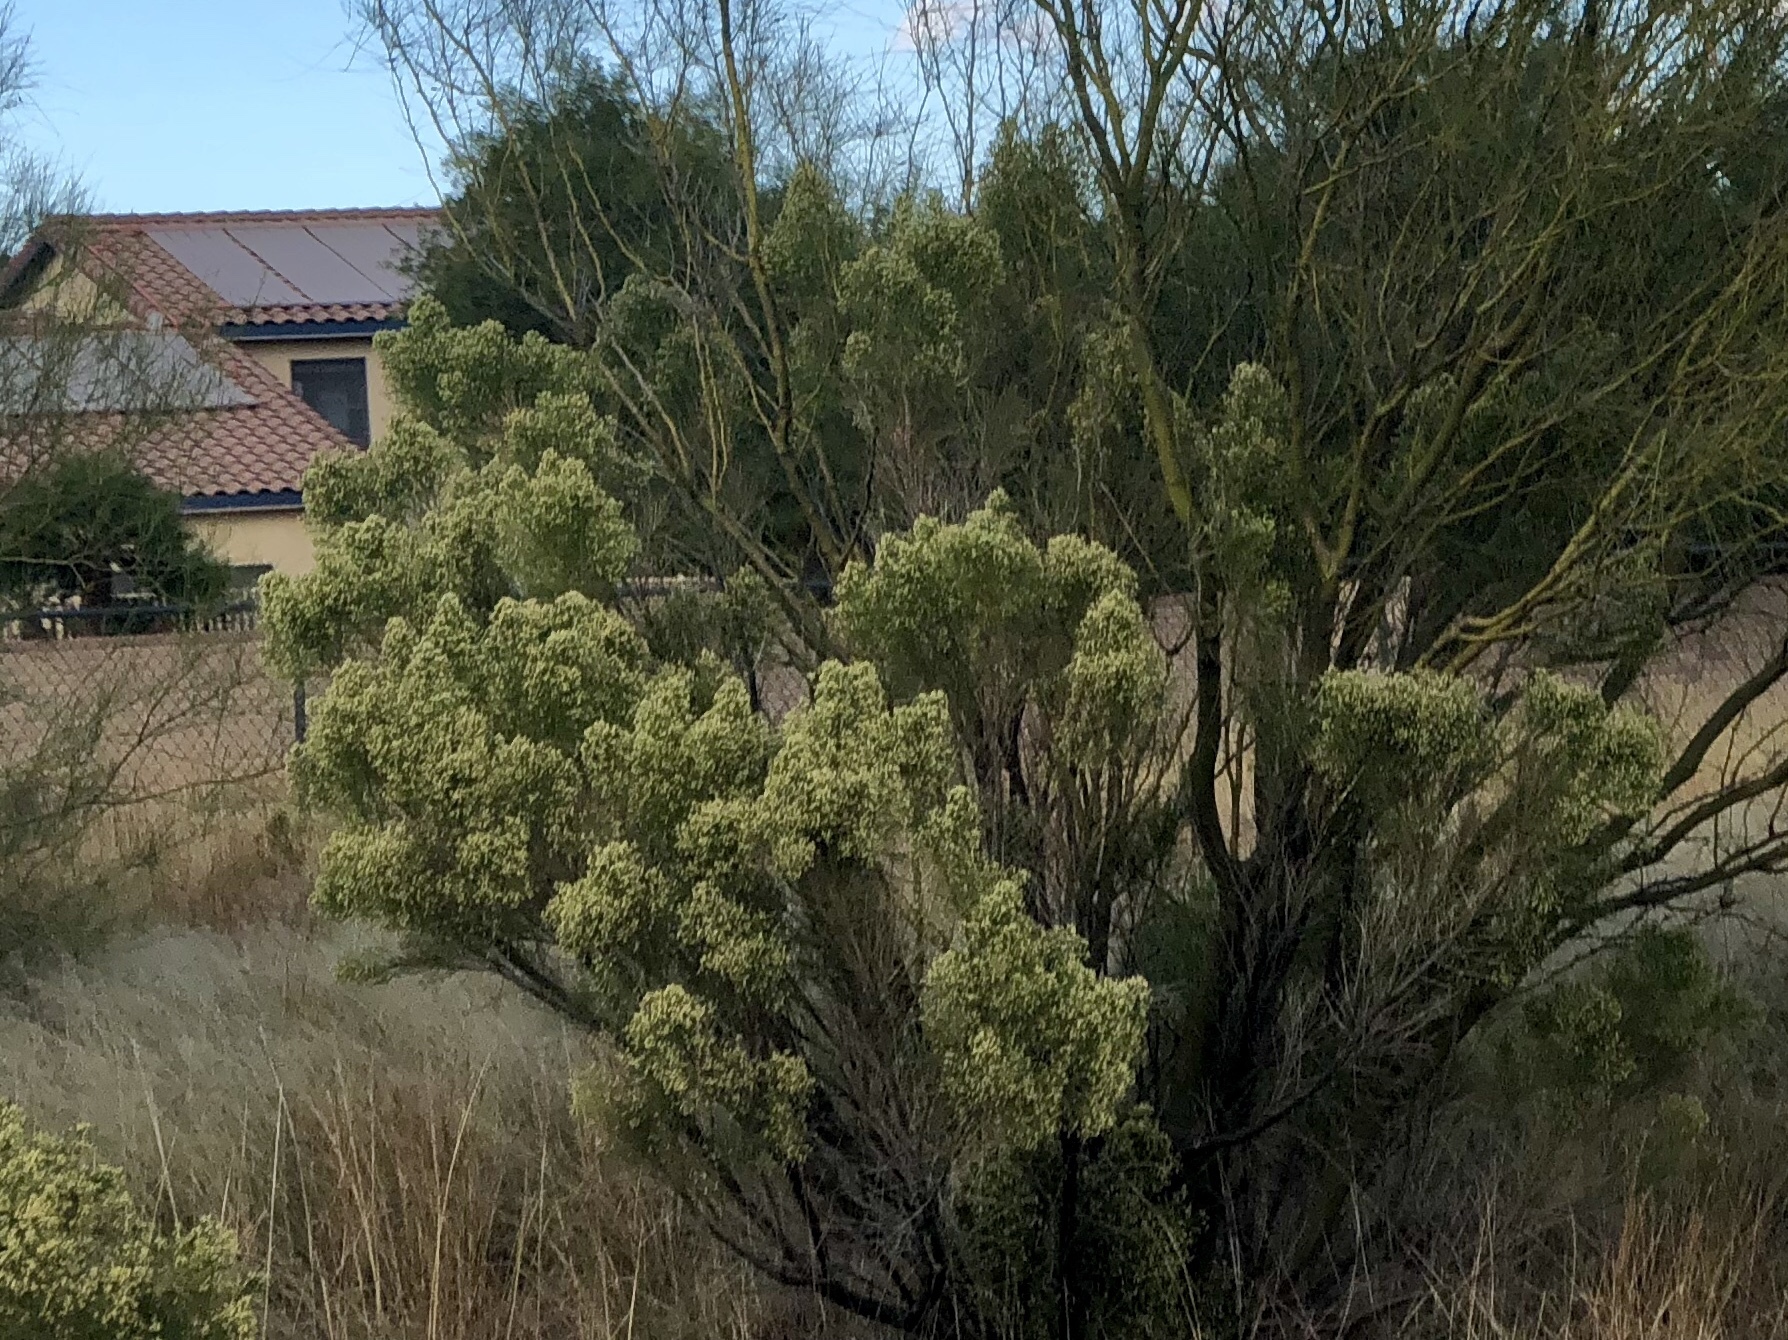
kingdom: Plantae
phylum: Tracheophyta
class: Magnoliopsida
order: Asterales
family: Asteraceae
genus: Baccharis
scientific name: Baccharis sarothroides
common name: Desert-broom
